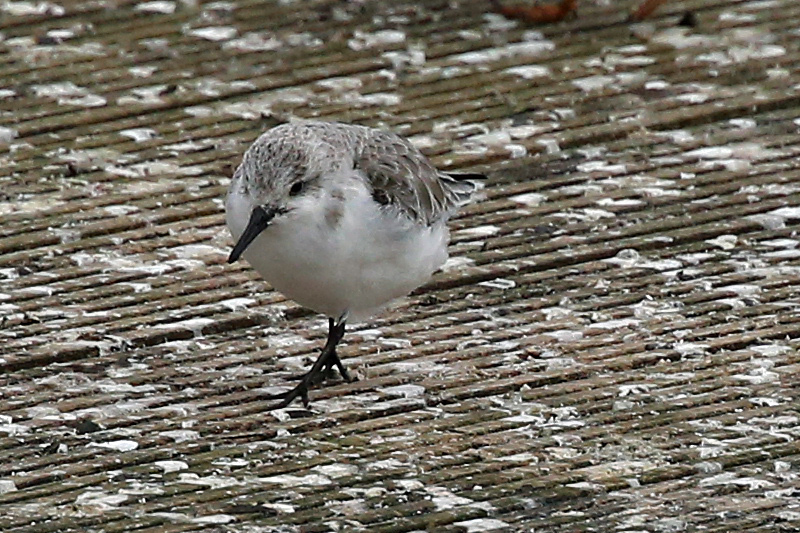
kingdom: Animalia
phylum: Chordata
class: Aves
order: Charadriiformes
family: Scolopacidae
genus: Calidris
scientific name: Calidris alba
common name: Sanderling
